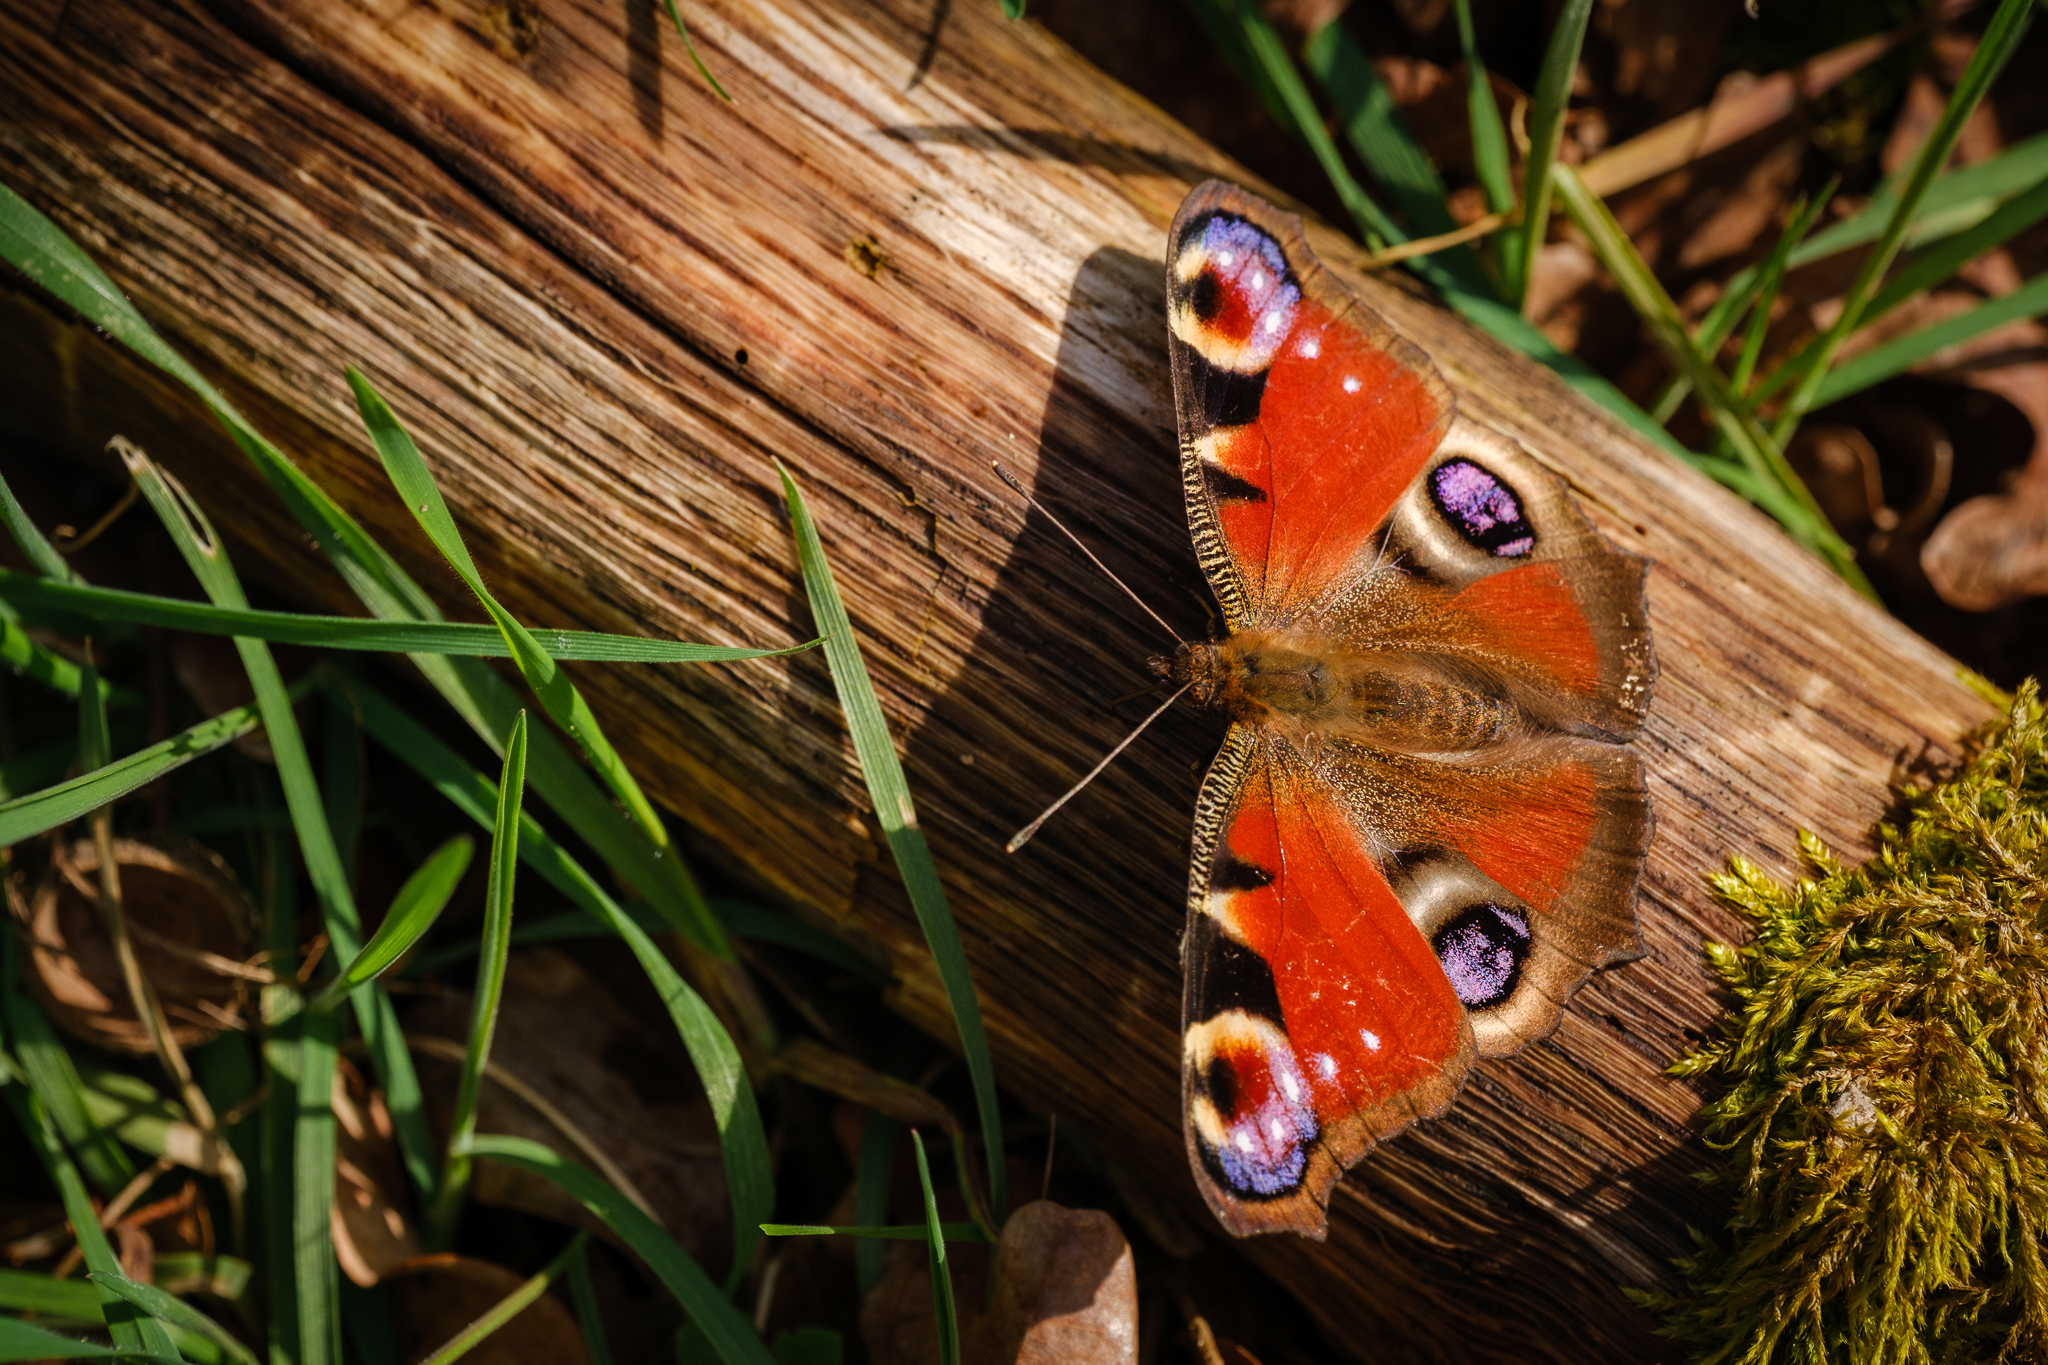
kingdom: Animalia
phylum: Arthropoda
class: Insecta
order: Lepidoptera
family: Nymphalidae
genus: Aglais
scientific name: Aglais io
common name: Peacock
